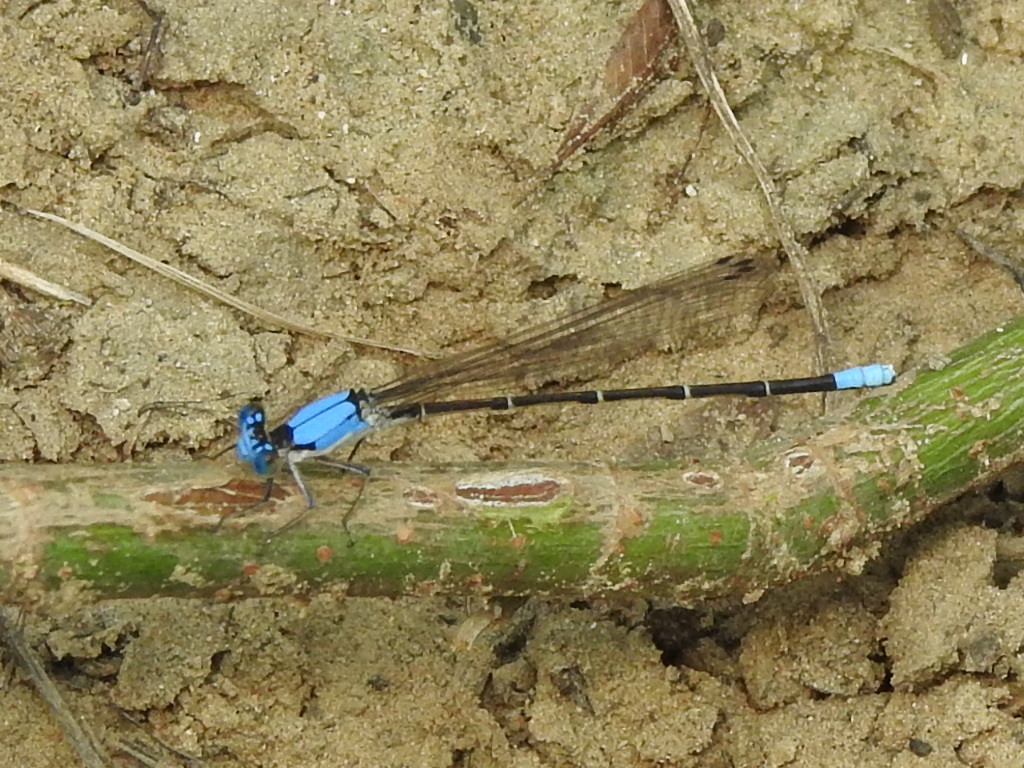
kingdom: Animalia
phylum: Arthropoda
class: Insecta
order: Odonata
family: Coenagrionidae
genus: Argia
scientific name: Argia apicalis
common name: Blue-fronted dancer
